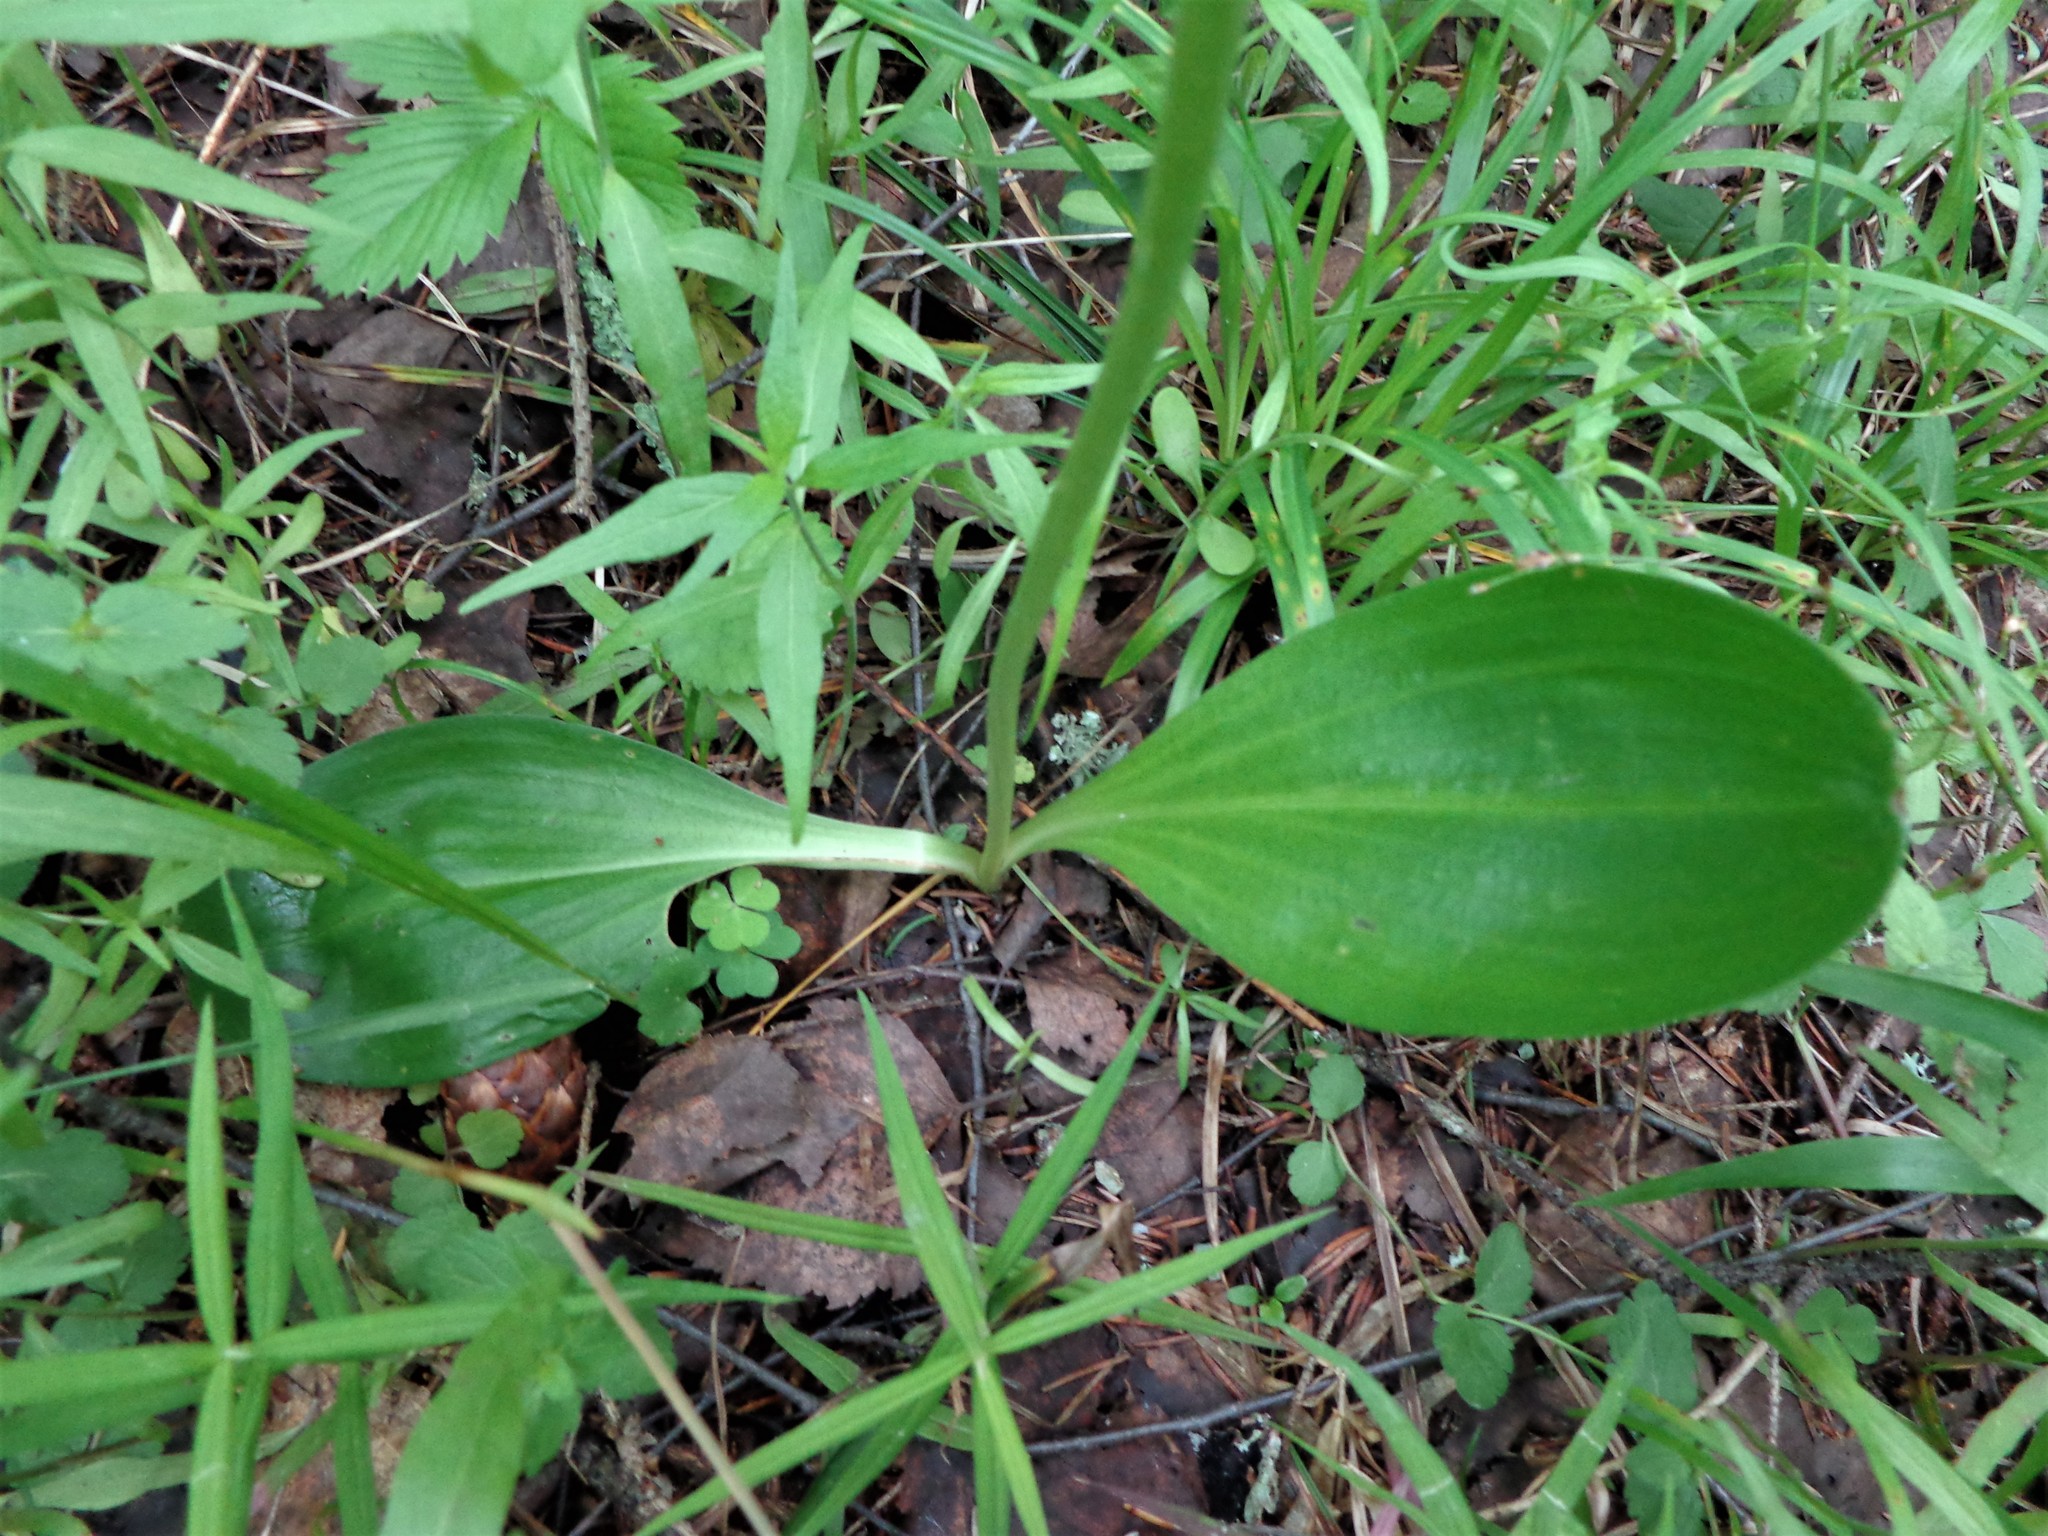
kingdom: Plantae
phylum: Tracheophyta
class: Liliopsida
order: Asparagales
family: Orchidaceae
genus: Platanthera
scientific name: Platanthera bifolia
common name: Lesser butterfly-orchid
